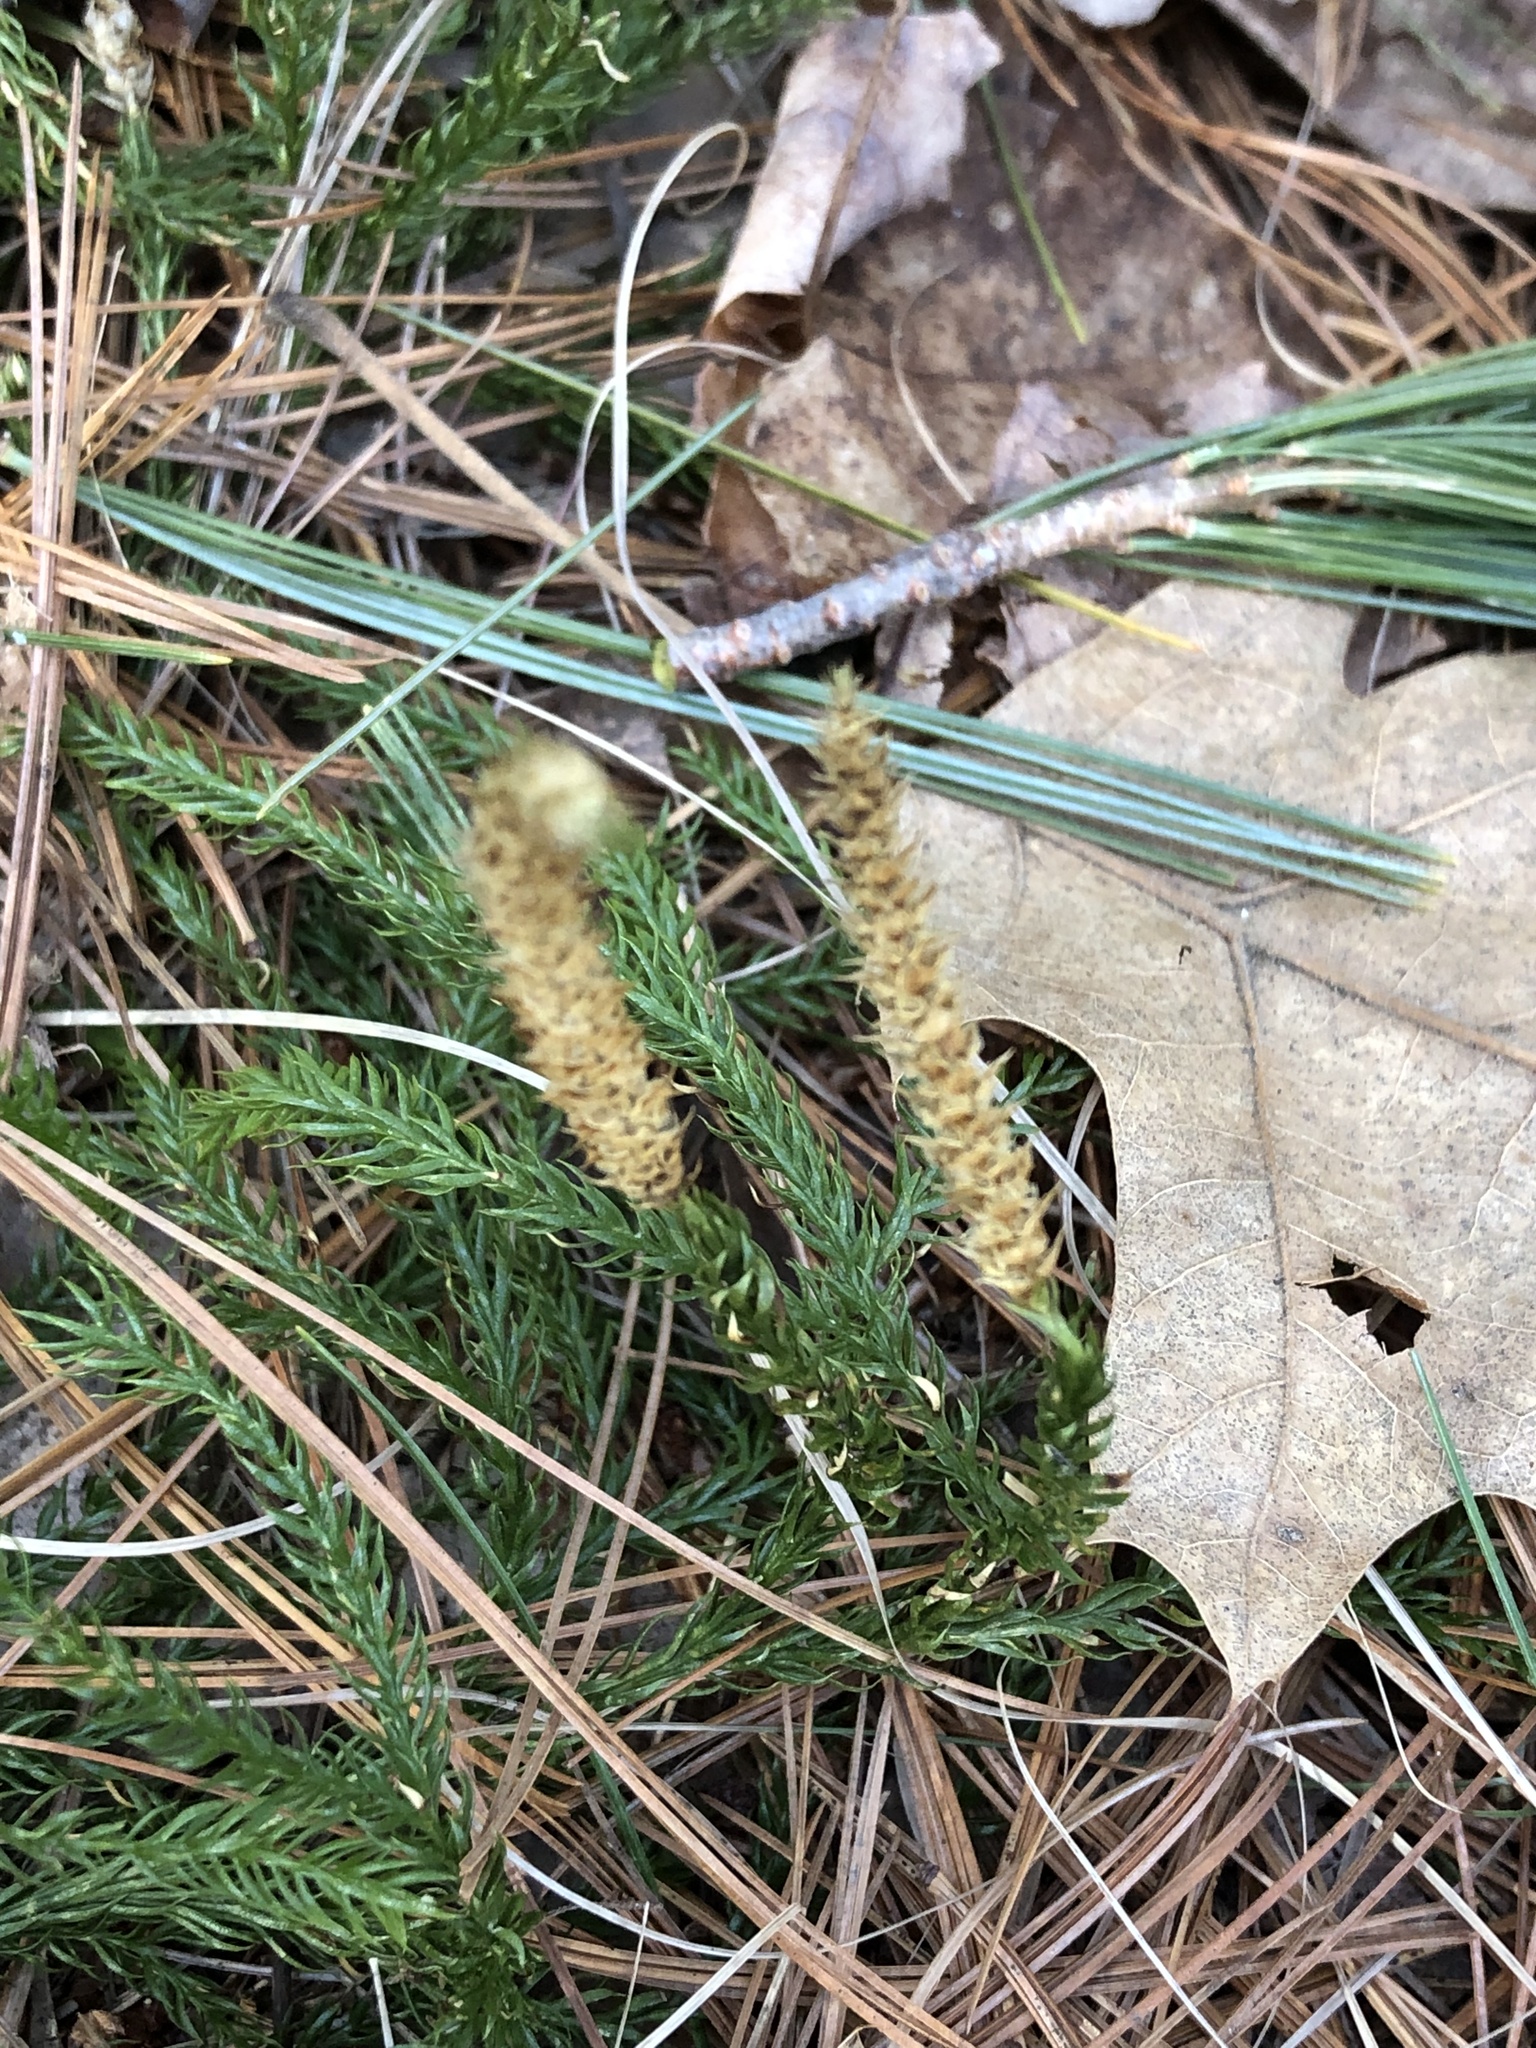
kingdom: Plantae
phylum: Tracheophyta
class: Lycopodiopsida
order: Lycopodiales
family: Lycopodiaceae
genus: Dendrolycopodium
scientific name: Dendrolycopodium obscurum
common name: Common ground-pine
